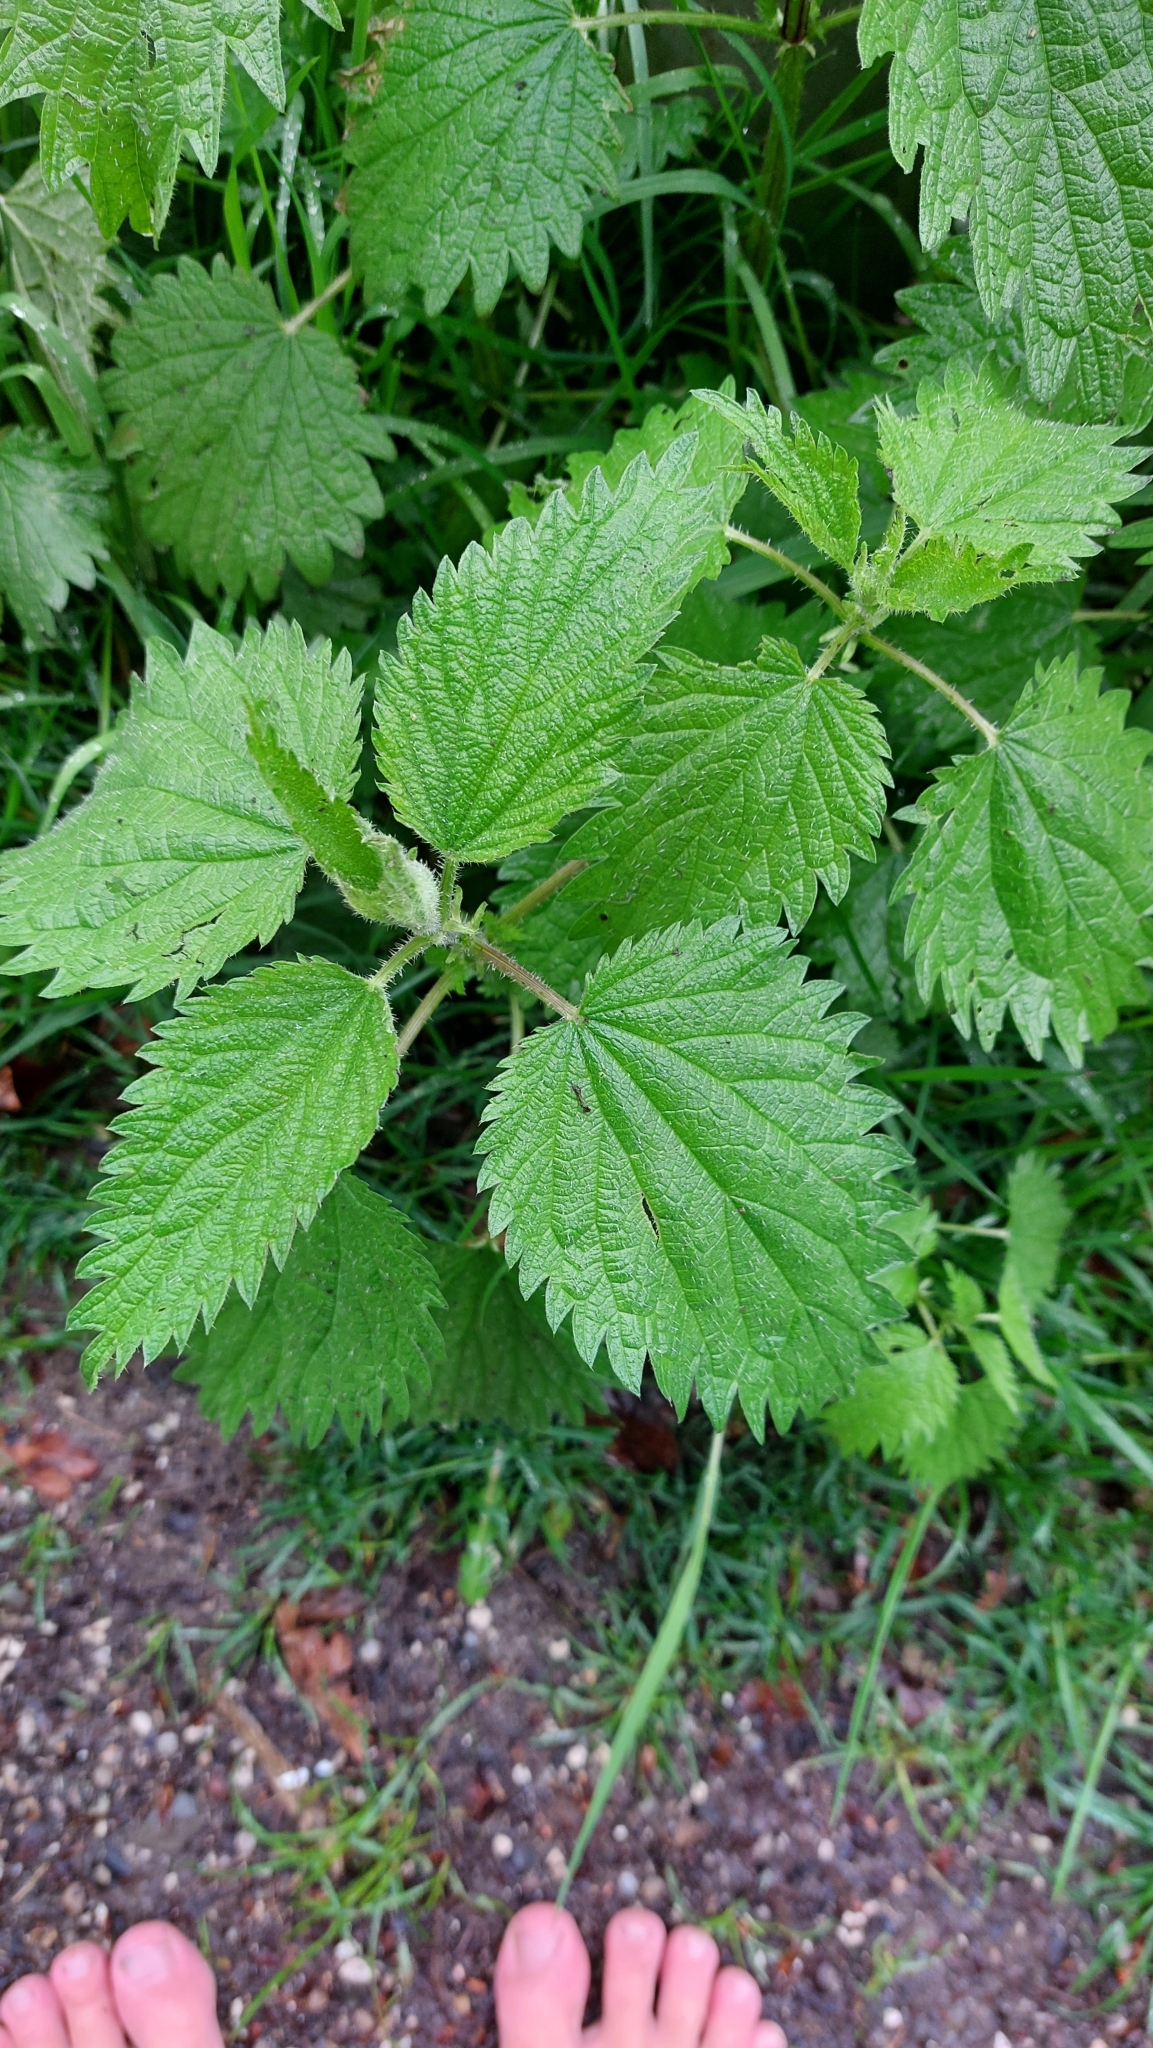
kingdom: Plantae
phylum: Tracheophyta
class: Magnoliopsida
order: Rosales
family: Urticaceae
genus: Urtica
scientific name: Urtica dioica
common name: Common nettle
